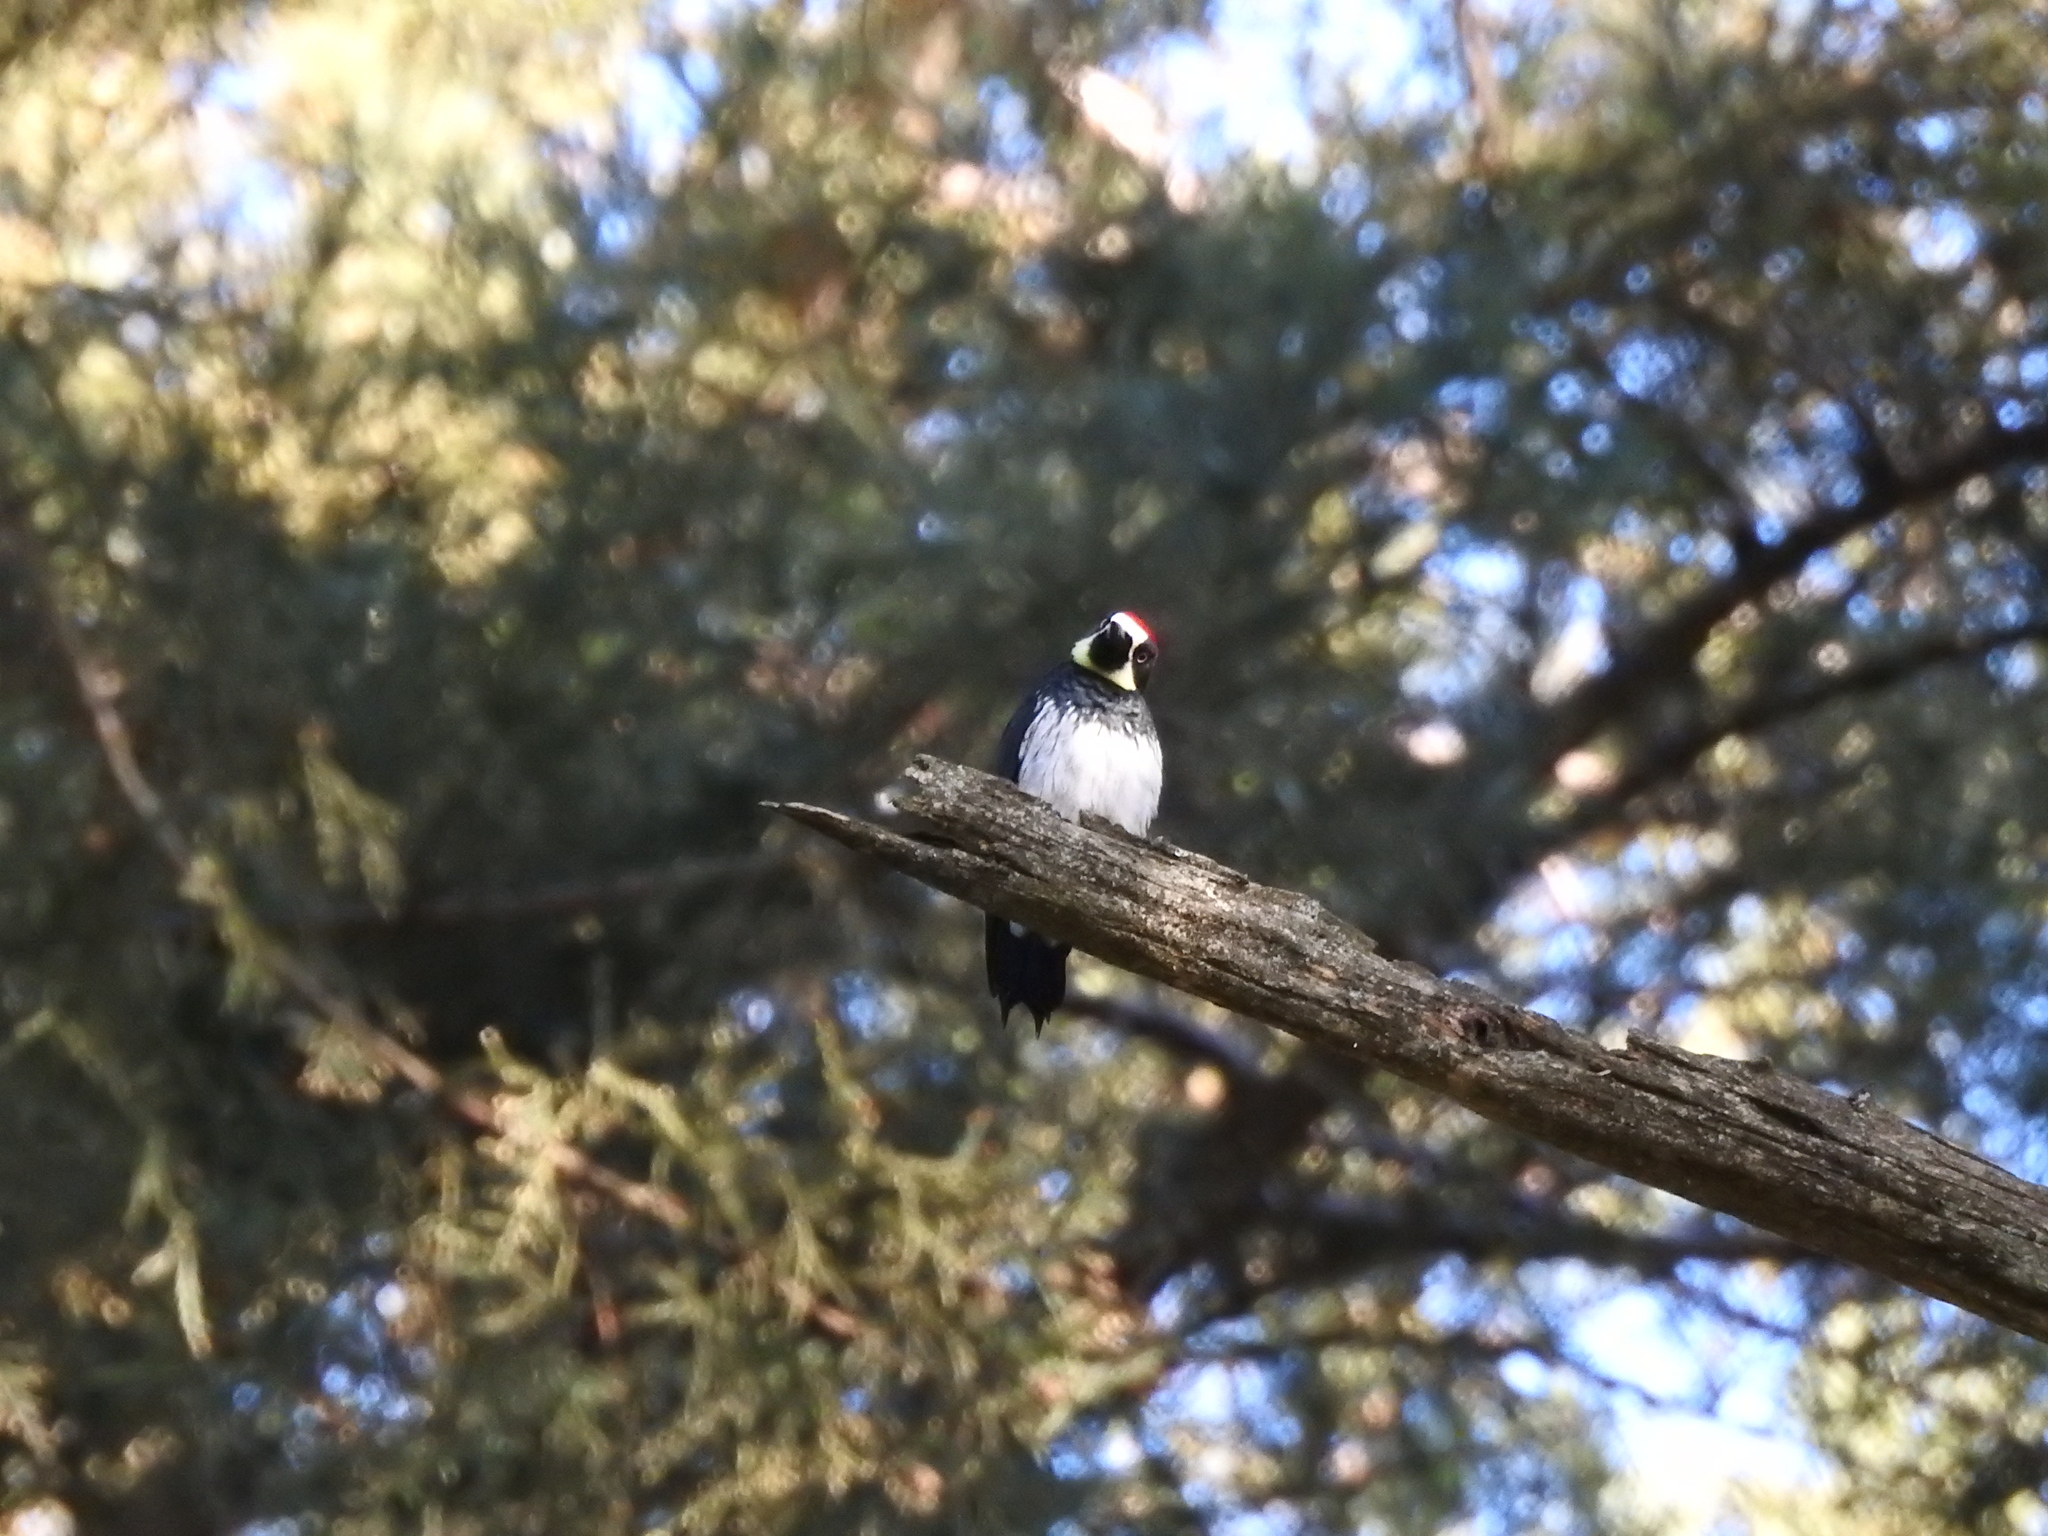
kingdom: Animalia
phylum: Chordata
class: Aves
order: Piciformes
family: Picidae
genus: Melanerpes
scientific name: Melanerpes formicivorus
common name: Acorn woodpecker
